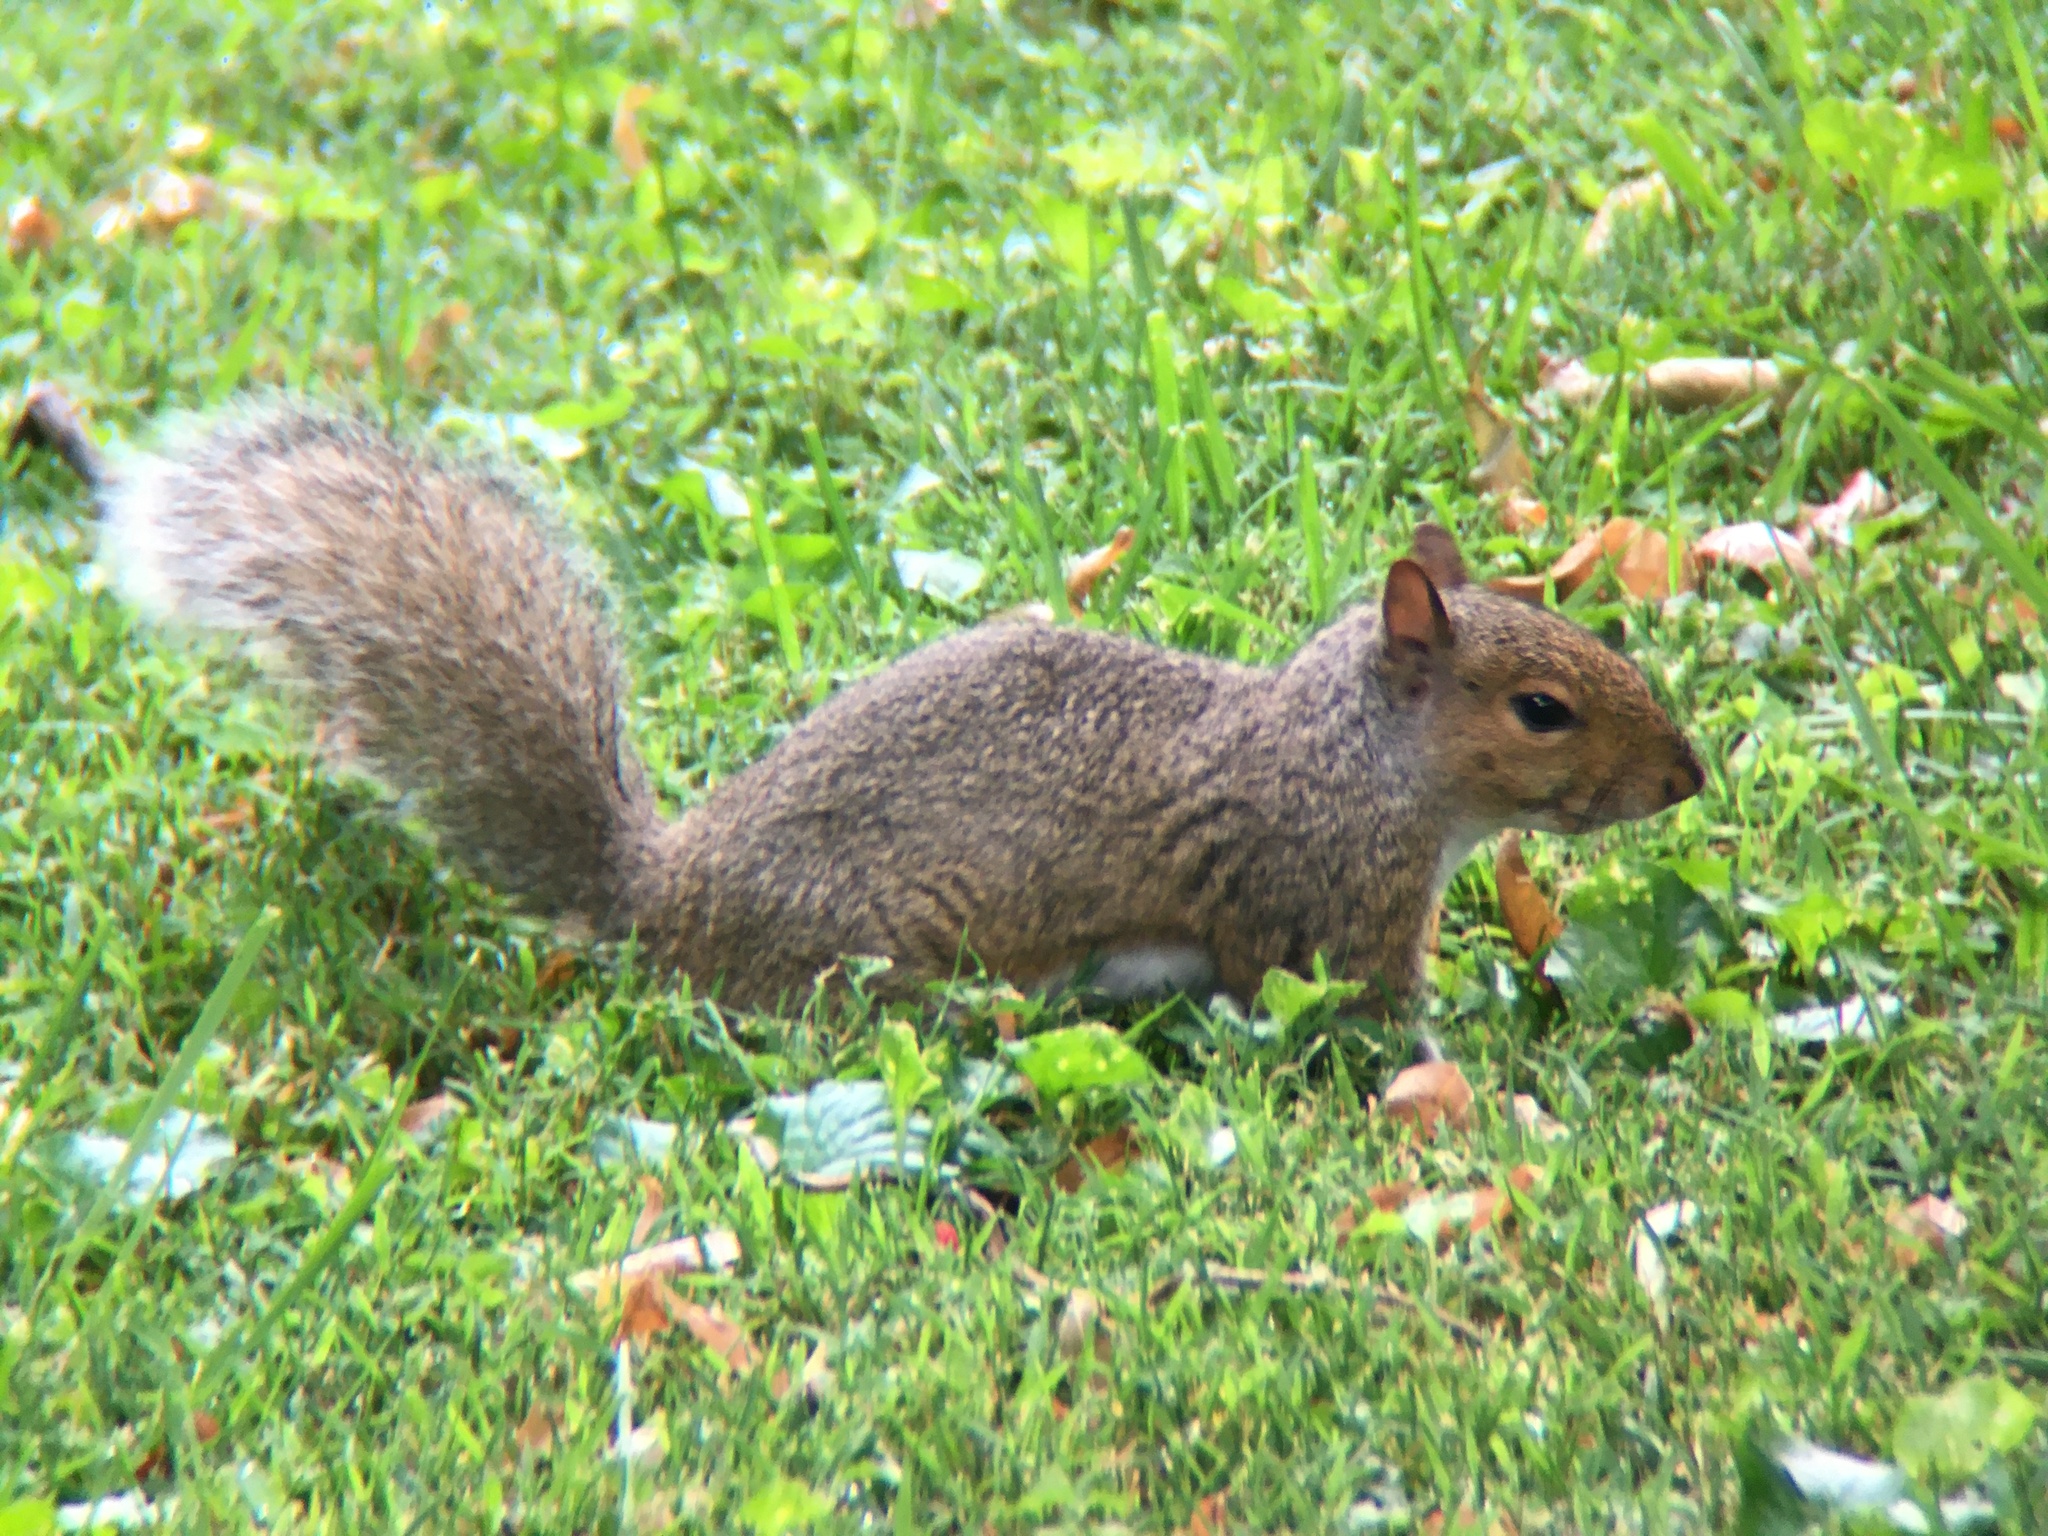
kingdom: Animalia
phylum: Chordata
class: Mammalia
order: Rodentia
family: Sciuridae
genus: Sciurus
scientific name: Sciurus carolinensis
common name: Eastern gray squirrel
